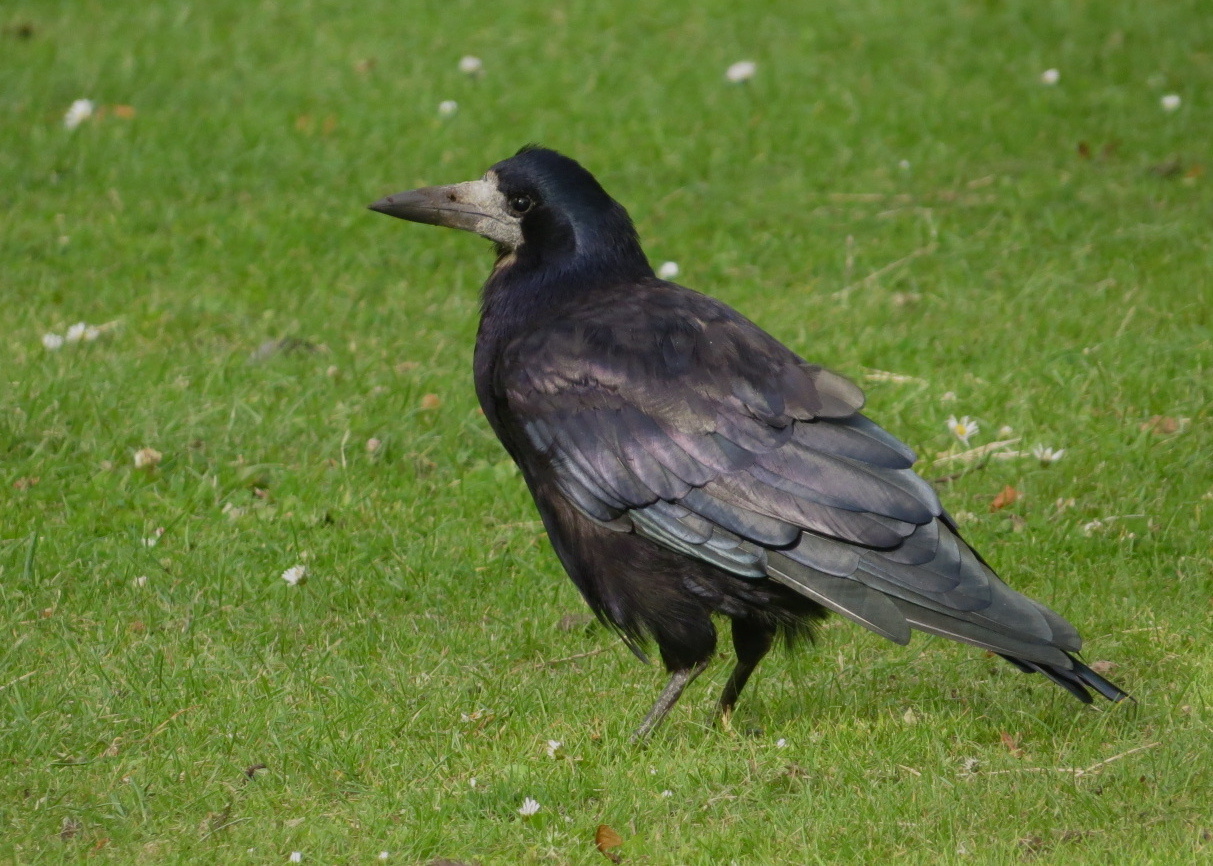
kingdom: Animalia
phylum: Chordata
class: Aves
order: Passeriformes
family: Corvidae
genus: Corvus
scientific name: Corvus frugilegus
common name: Rook
